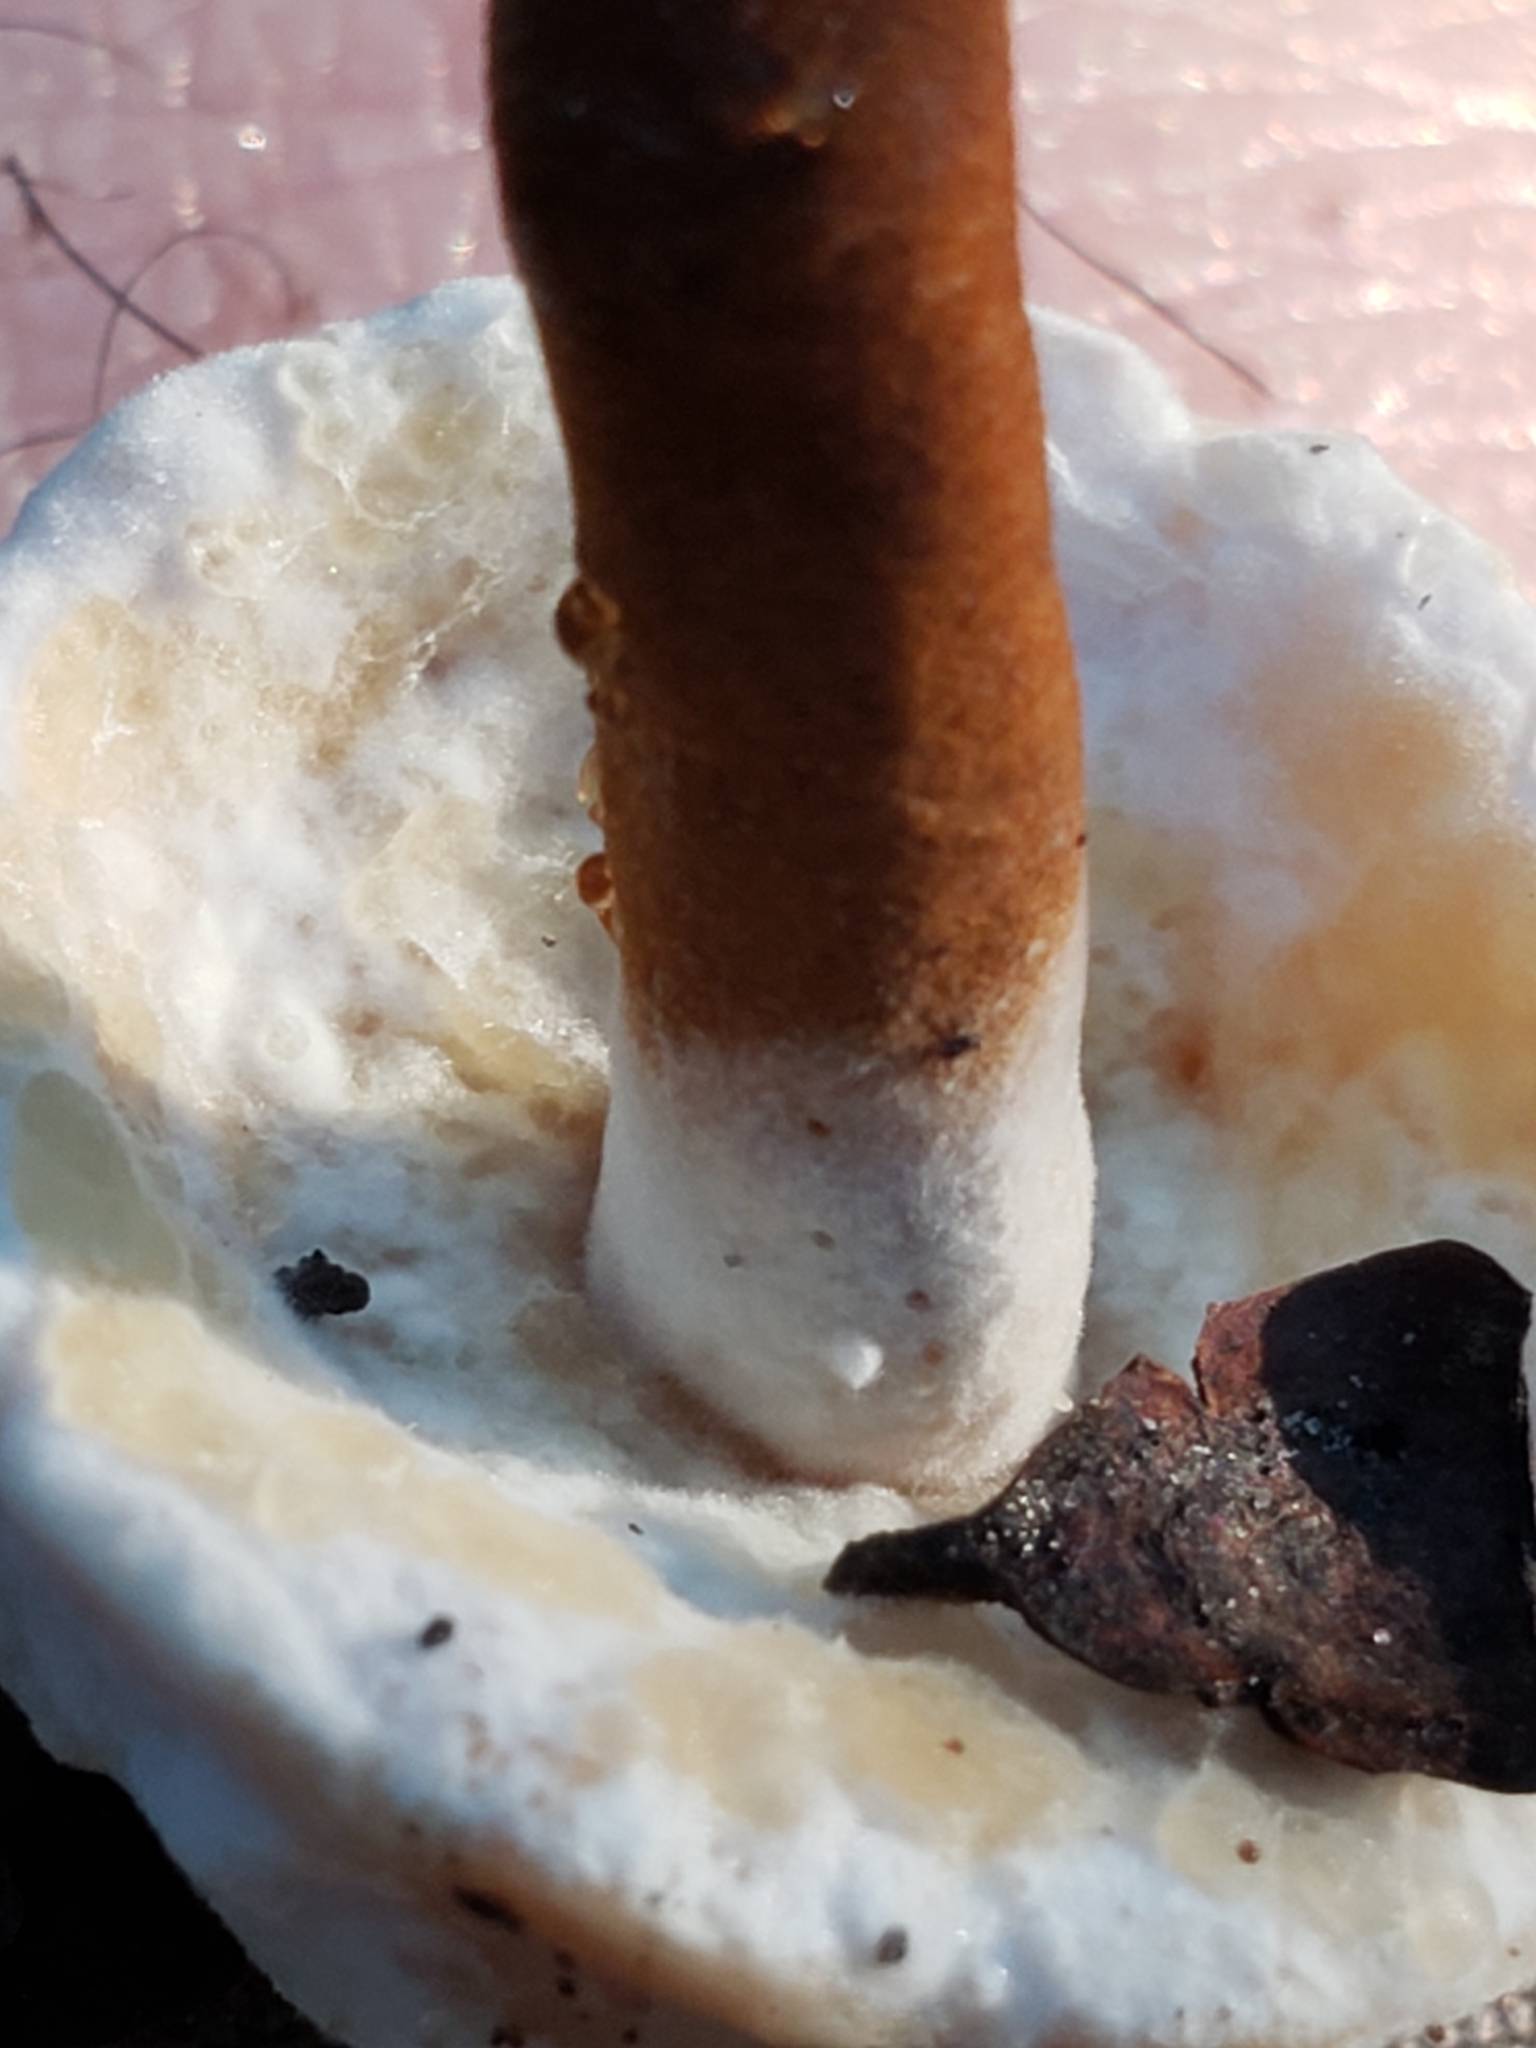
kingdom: Fungi
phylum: Ascomycota
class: Sordariomycetes
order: Hypocreales
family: Hypocreaceae
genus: Hypomyces
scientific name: Hypomyces chrysospermus
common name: Bolete mould
